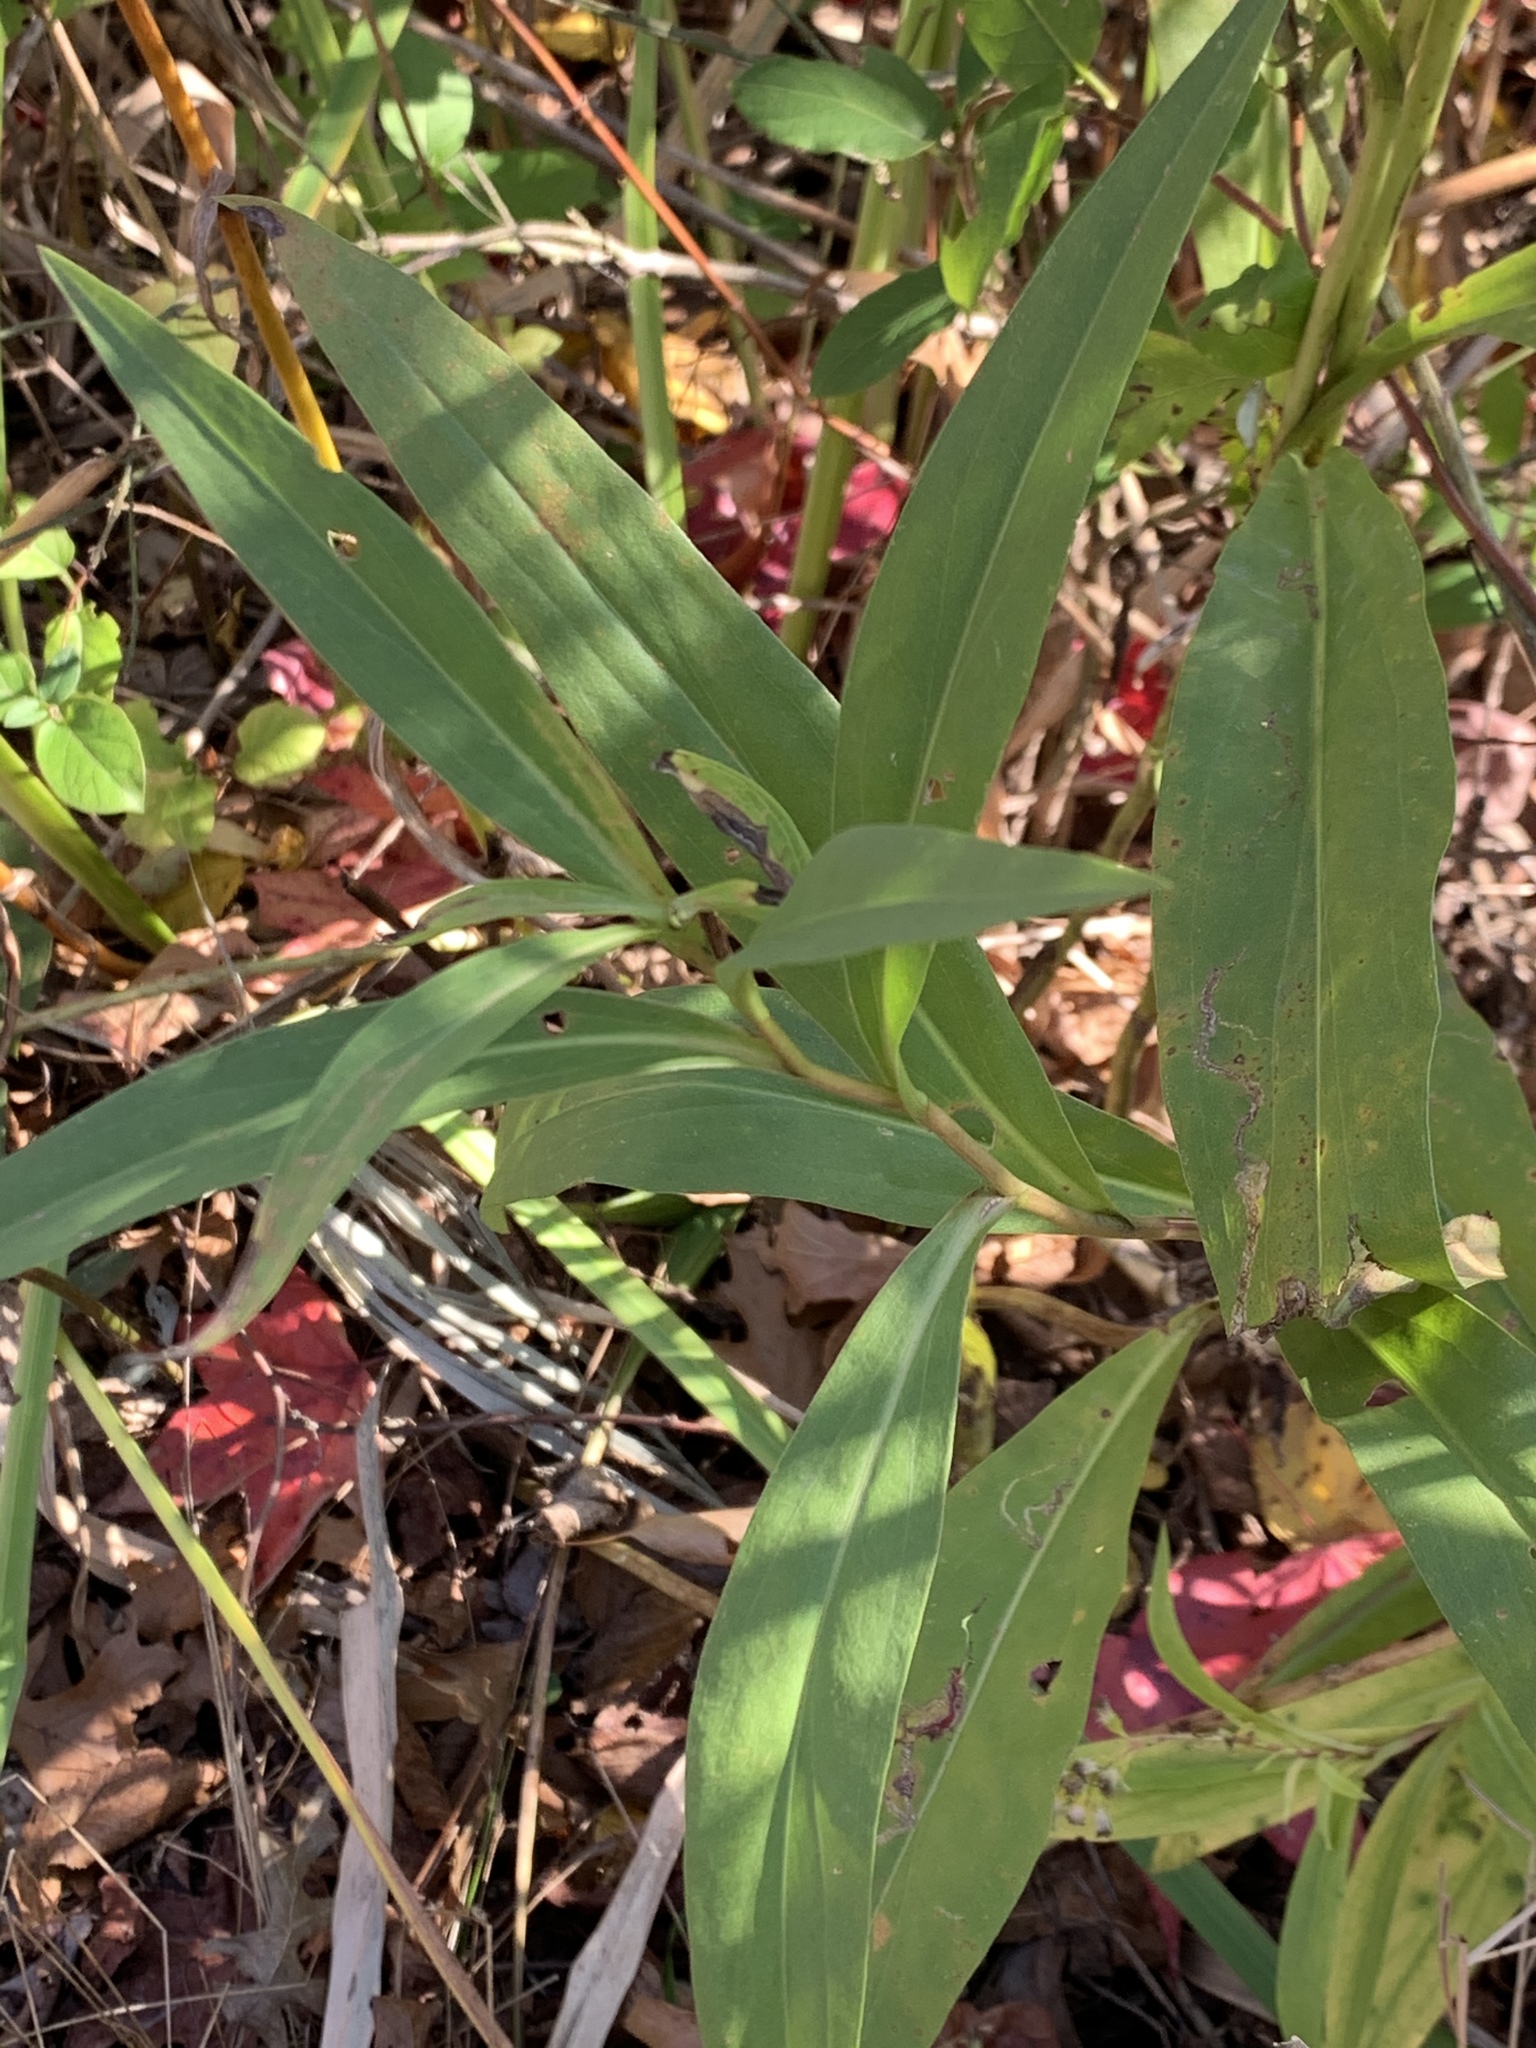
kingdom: Plantae
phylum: Tracheophyta
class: Magnoliopsida
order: Asterales
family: Asteraceae
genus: Solidago
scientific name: Solidago sempervirens
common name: Salt-marsh goldenrod
